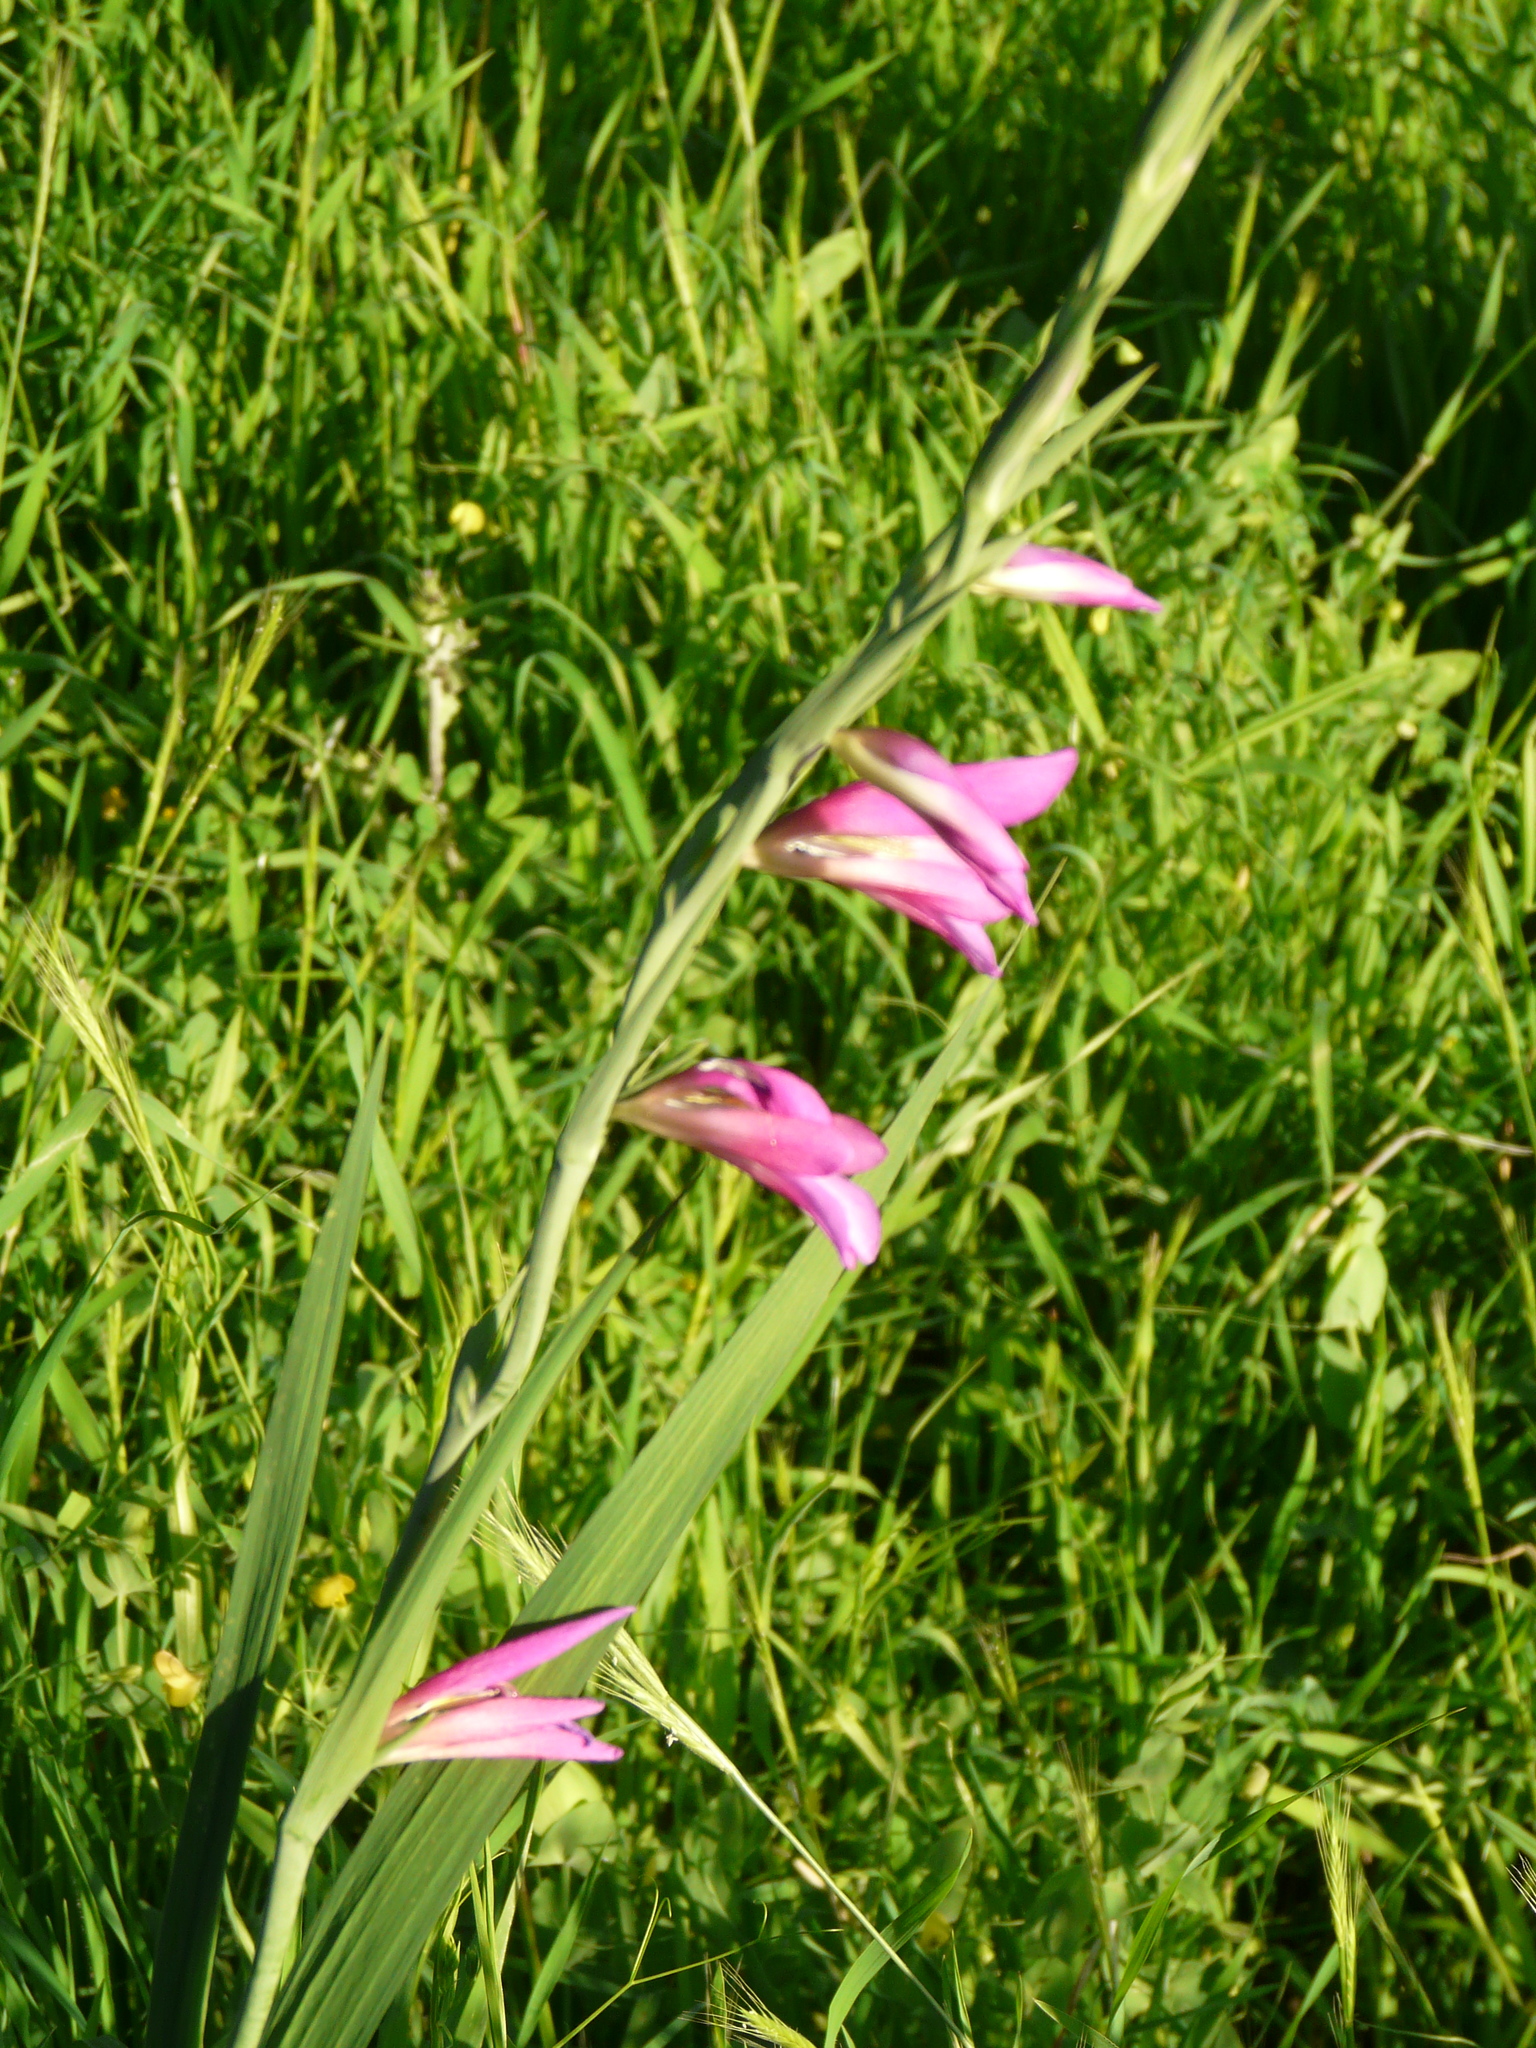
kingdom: Plantae
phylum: Tracheophyta
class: Liliopsida
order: Asparagales
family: Iridaceae
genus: Gladiolus
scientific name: Gladiolus italicus
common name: Field gladiolus
